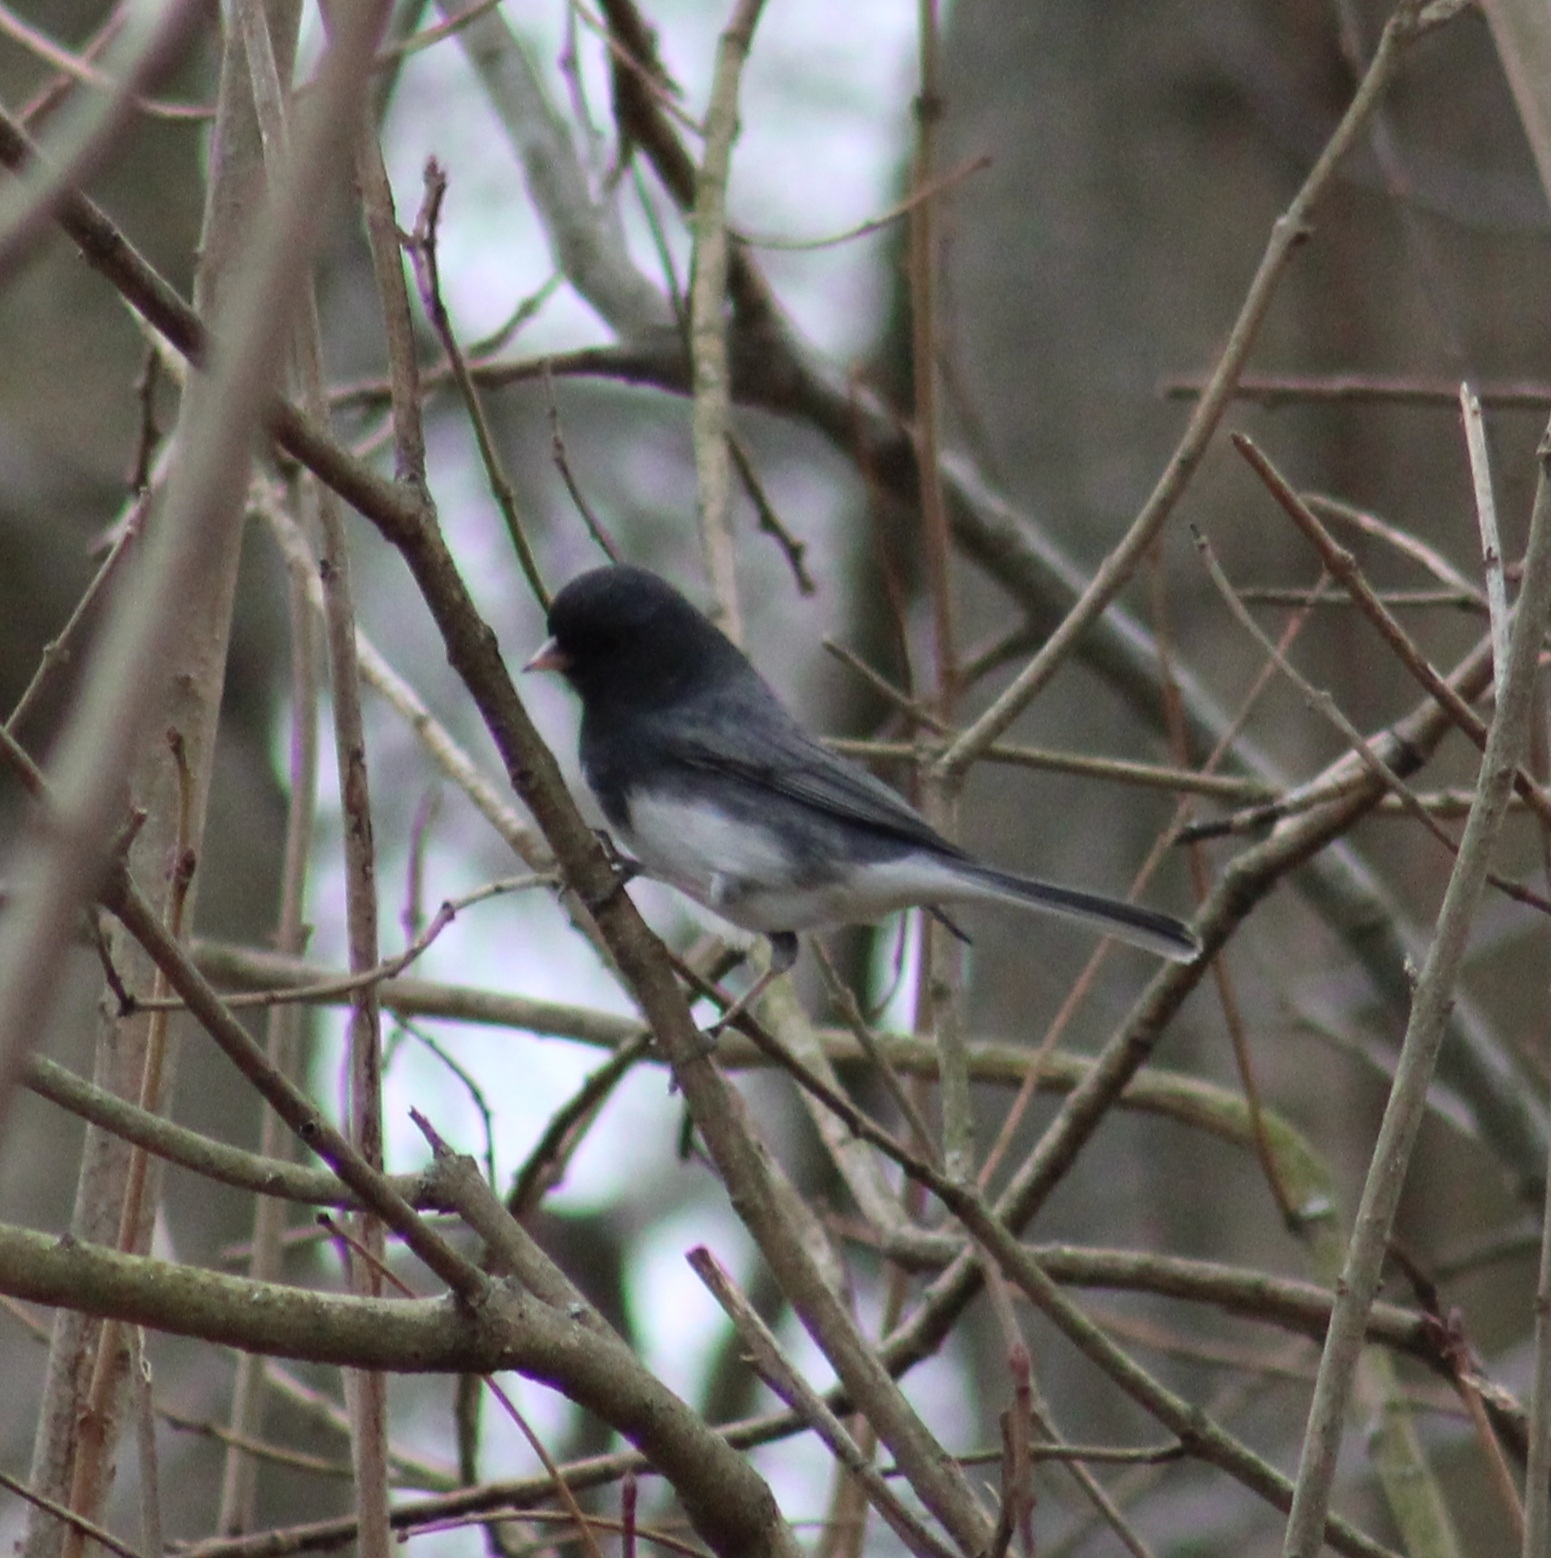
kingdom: Animalia
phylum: Chordata
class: Aves
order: Passeriformes
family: Passerellidae
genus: Junco
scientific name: Junco hyemalis
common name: Dark-eyed junco
